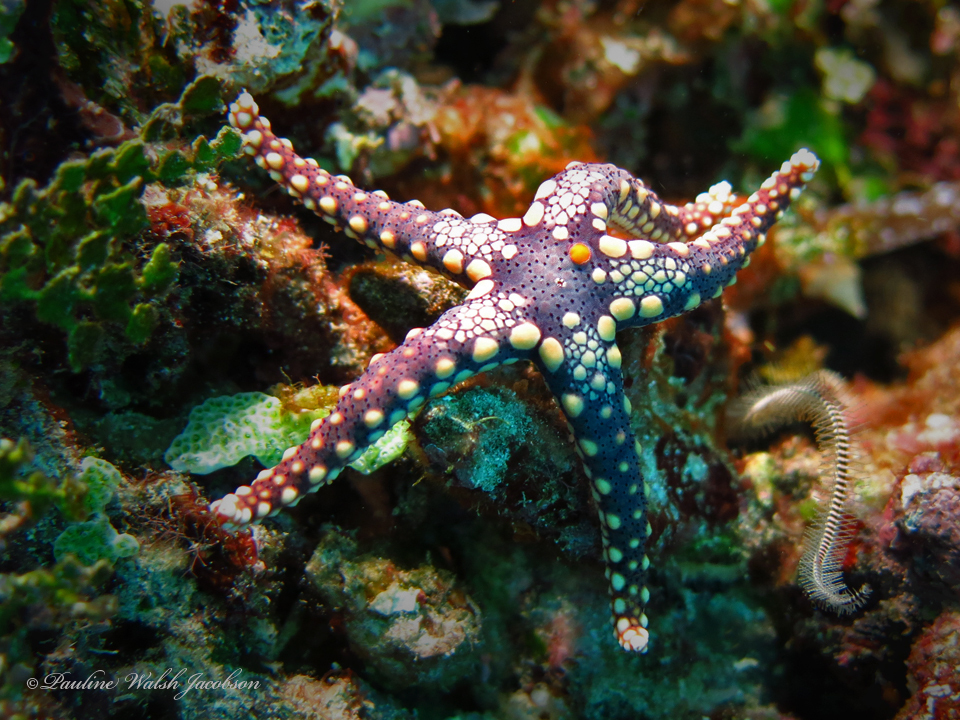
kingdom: Animalia
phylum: Echinodermata
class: Asteroidea
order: Valvatida
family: Goniasteridae
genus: Fromia
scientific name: Fromia heffernani
